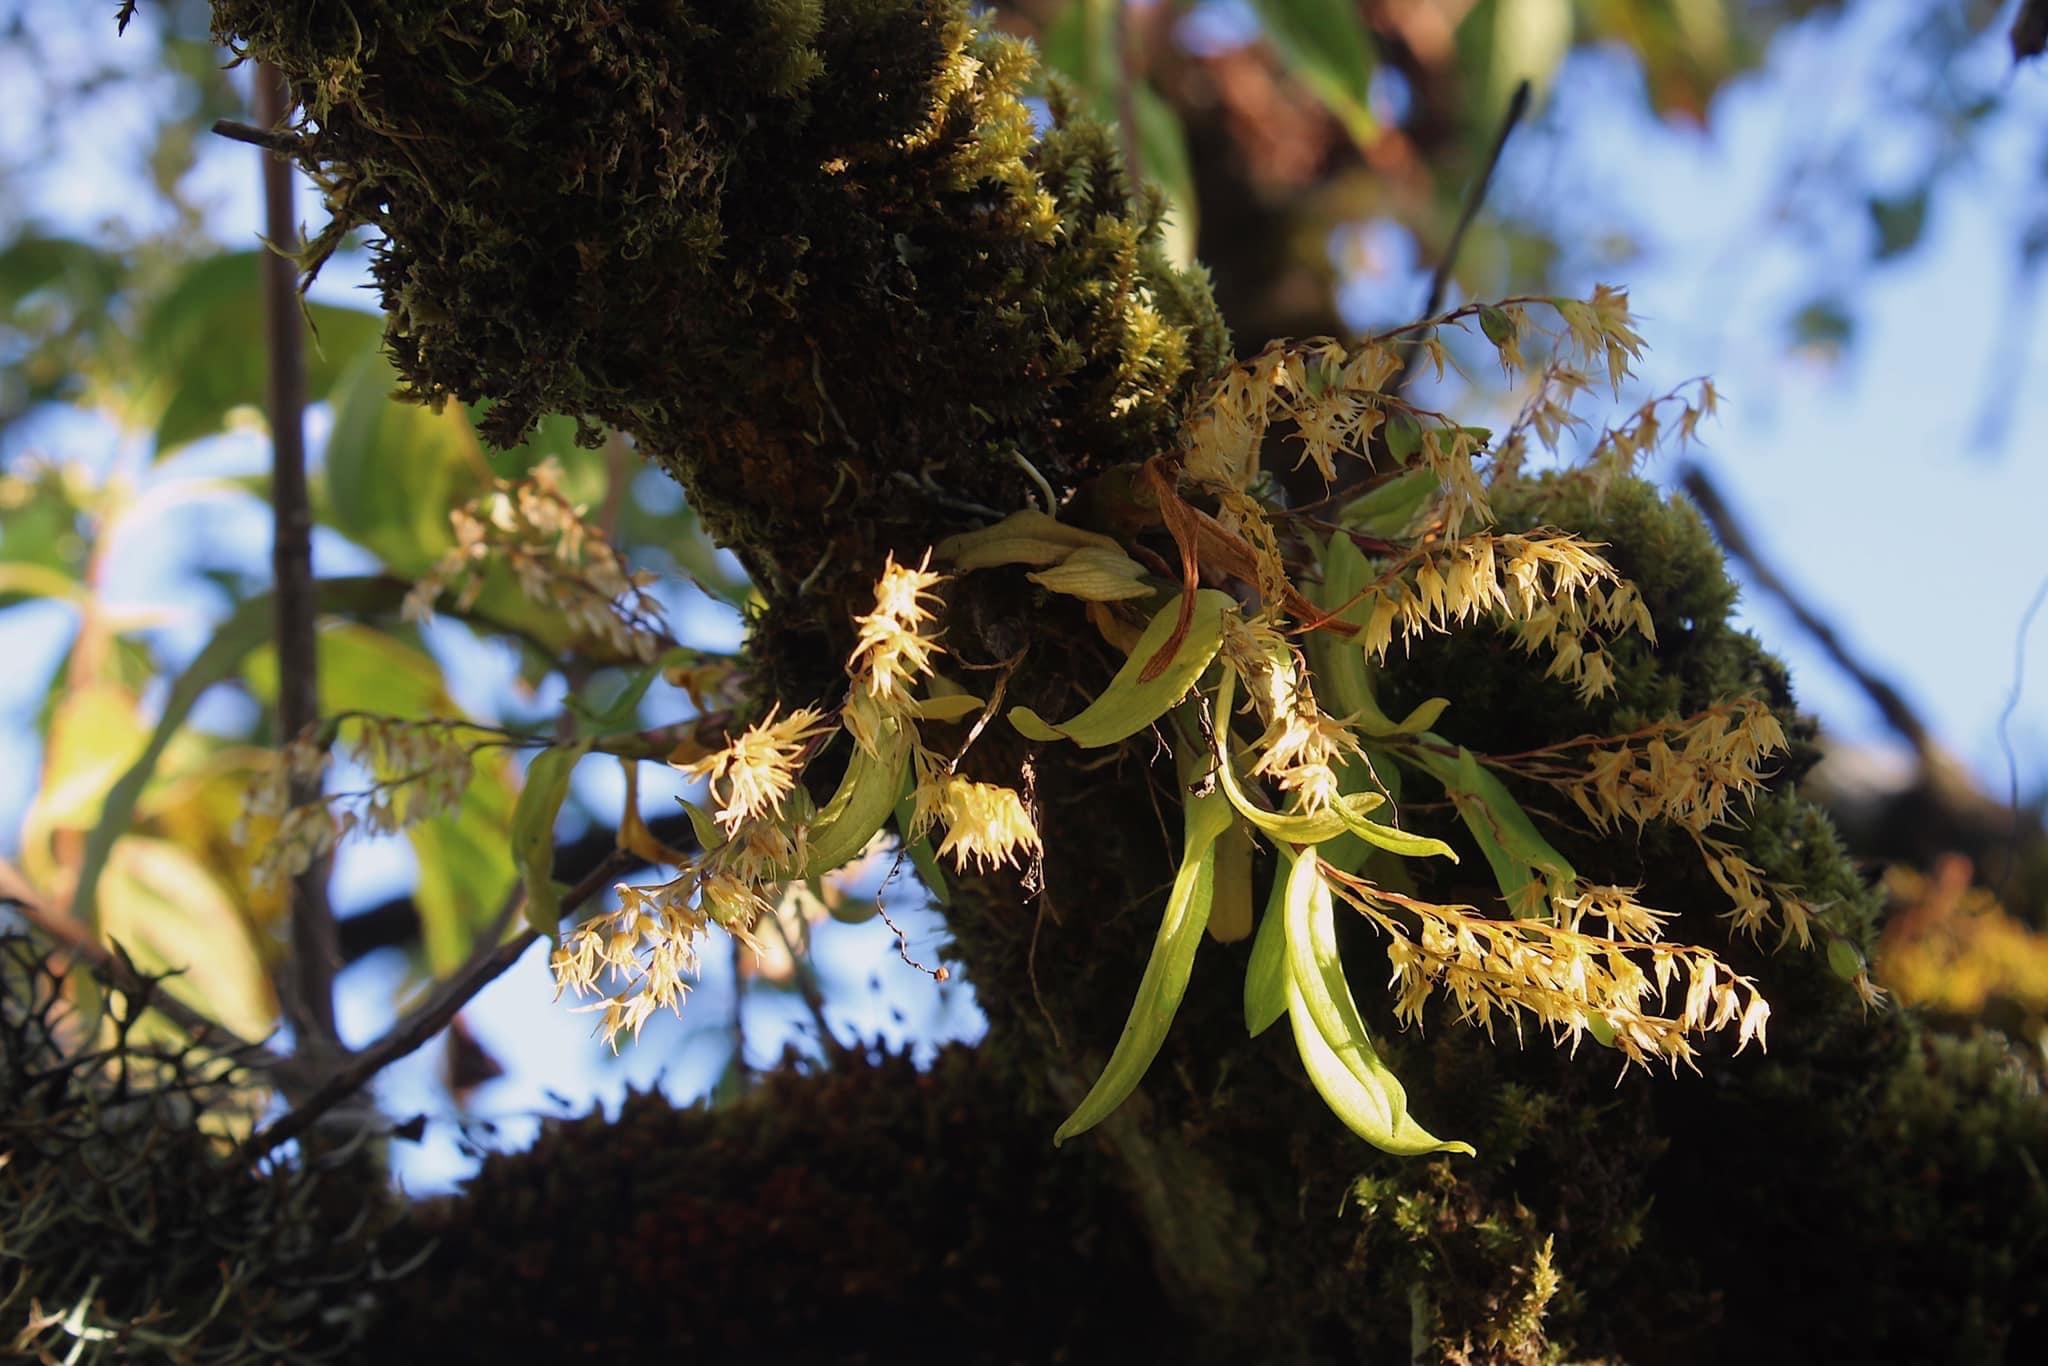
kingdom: Plantae
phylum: Tracheophyta
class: Liliopsida
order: Asparagales
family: Orchidaceae
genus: Dendrobium
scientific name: Dendrobium perpaulum
